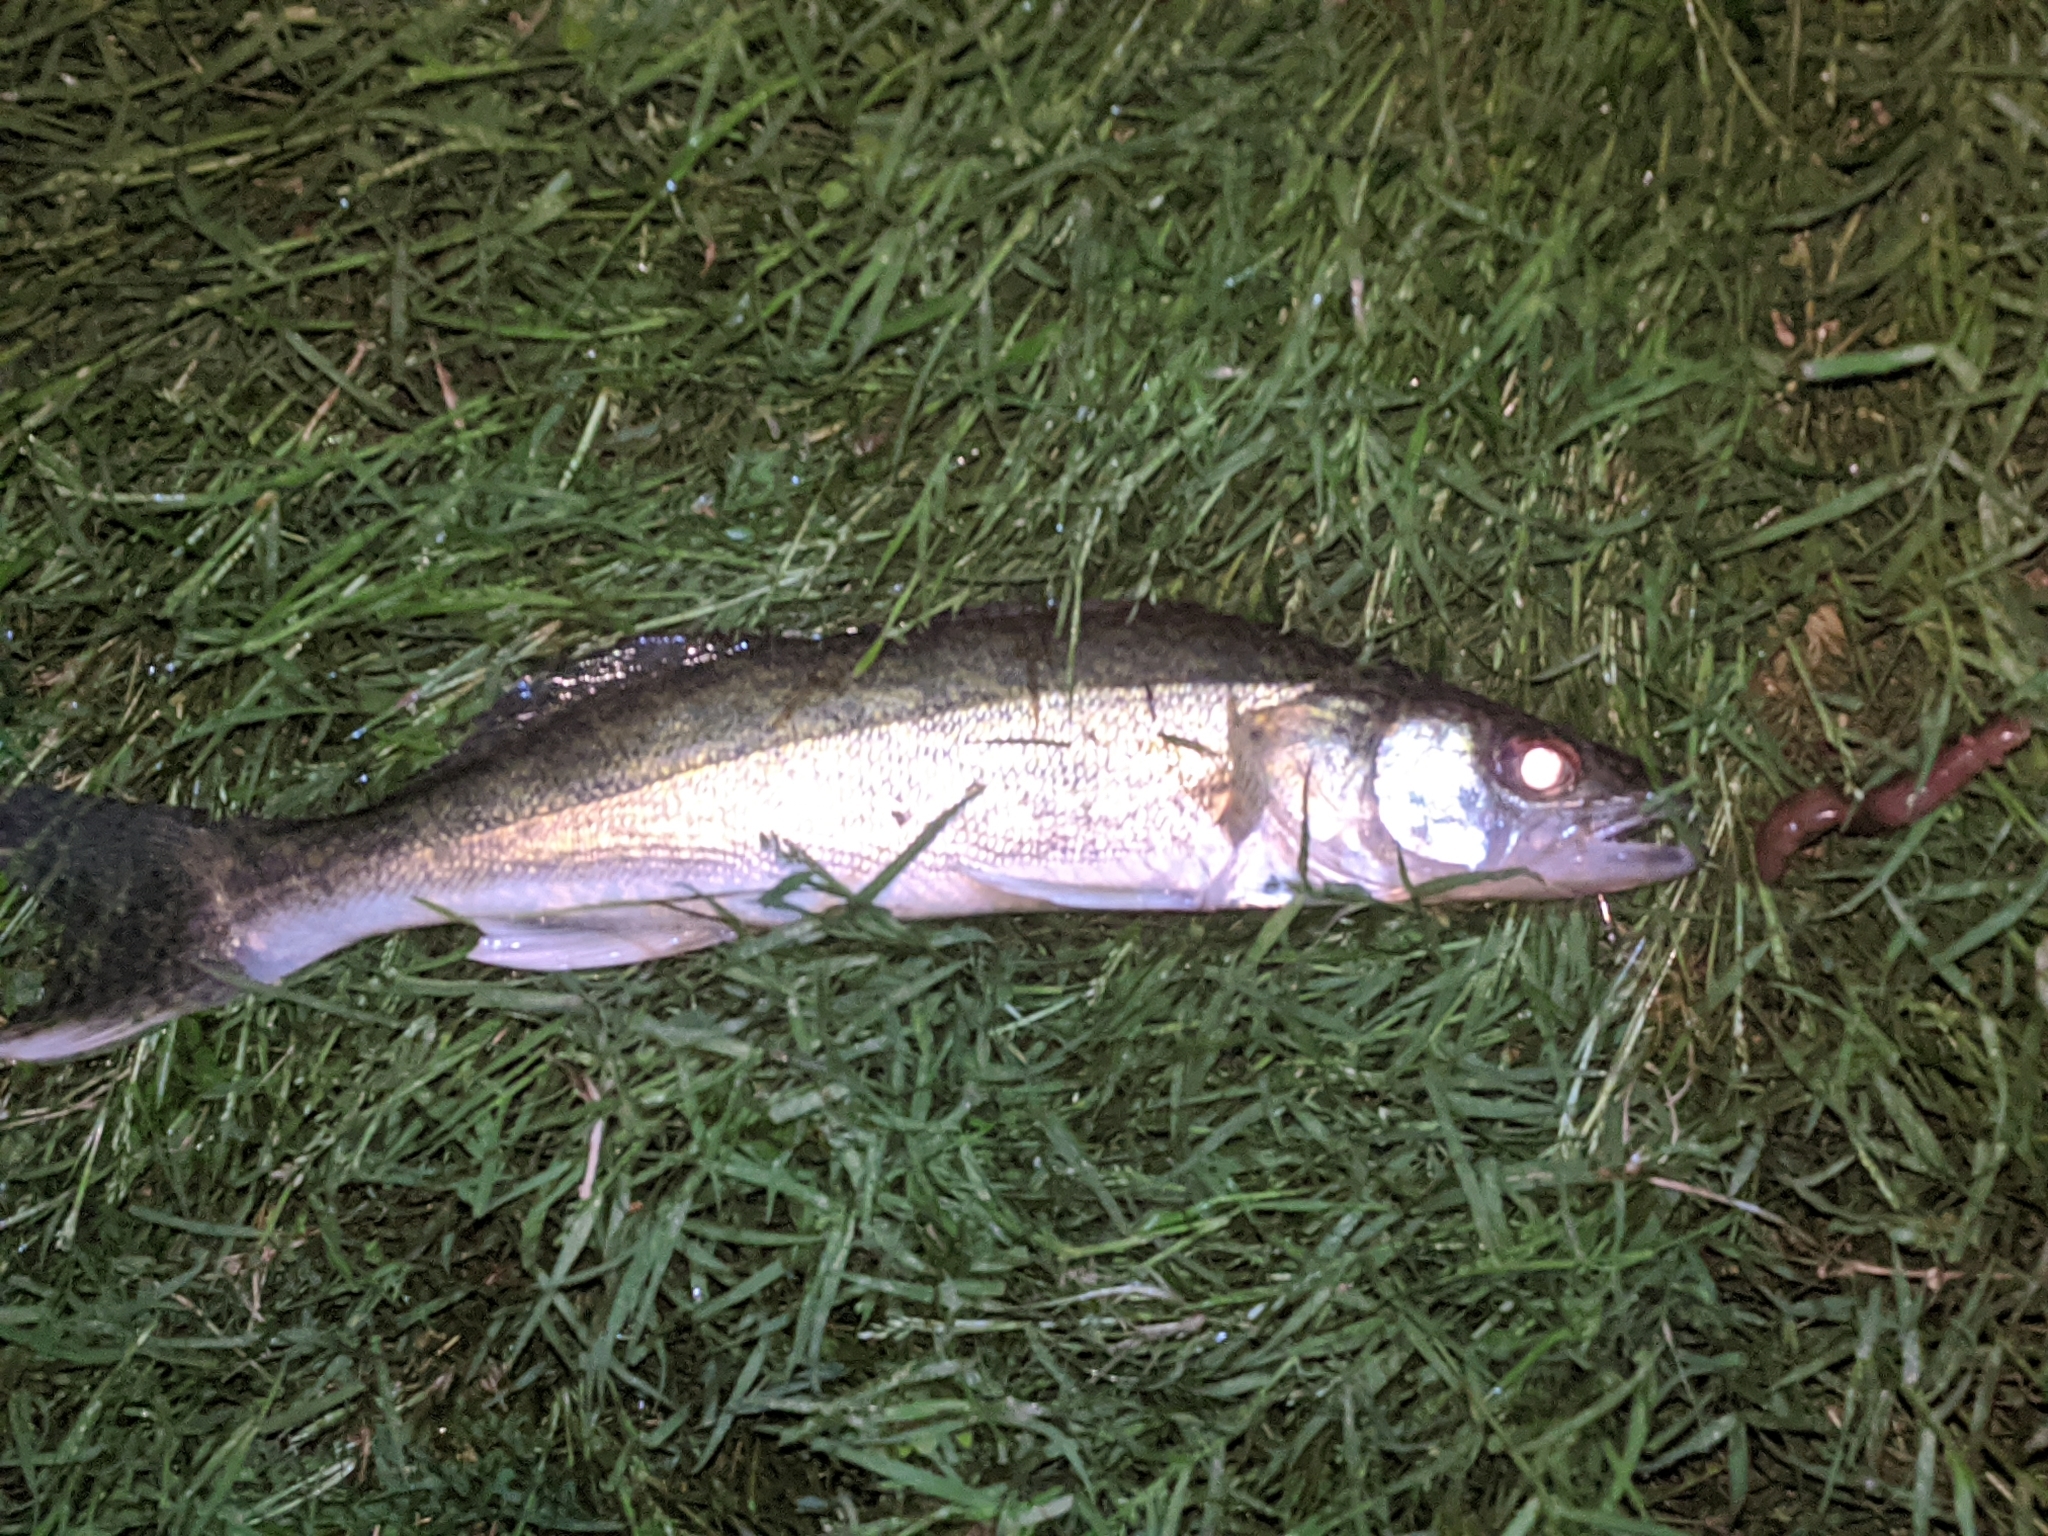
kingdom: Animalia
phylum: Chordata
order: Perciformes
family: Percidae
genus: Sander
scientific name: Sander vitreus
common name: Walleye
